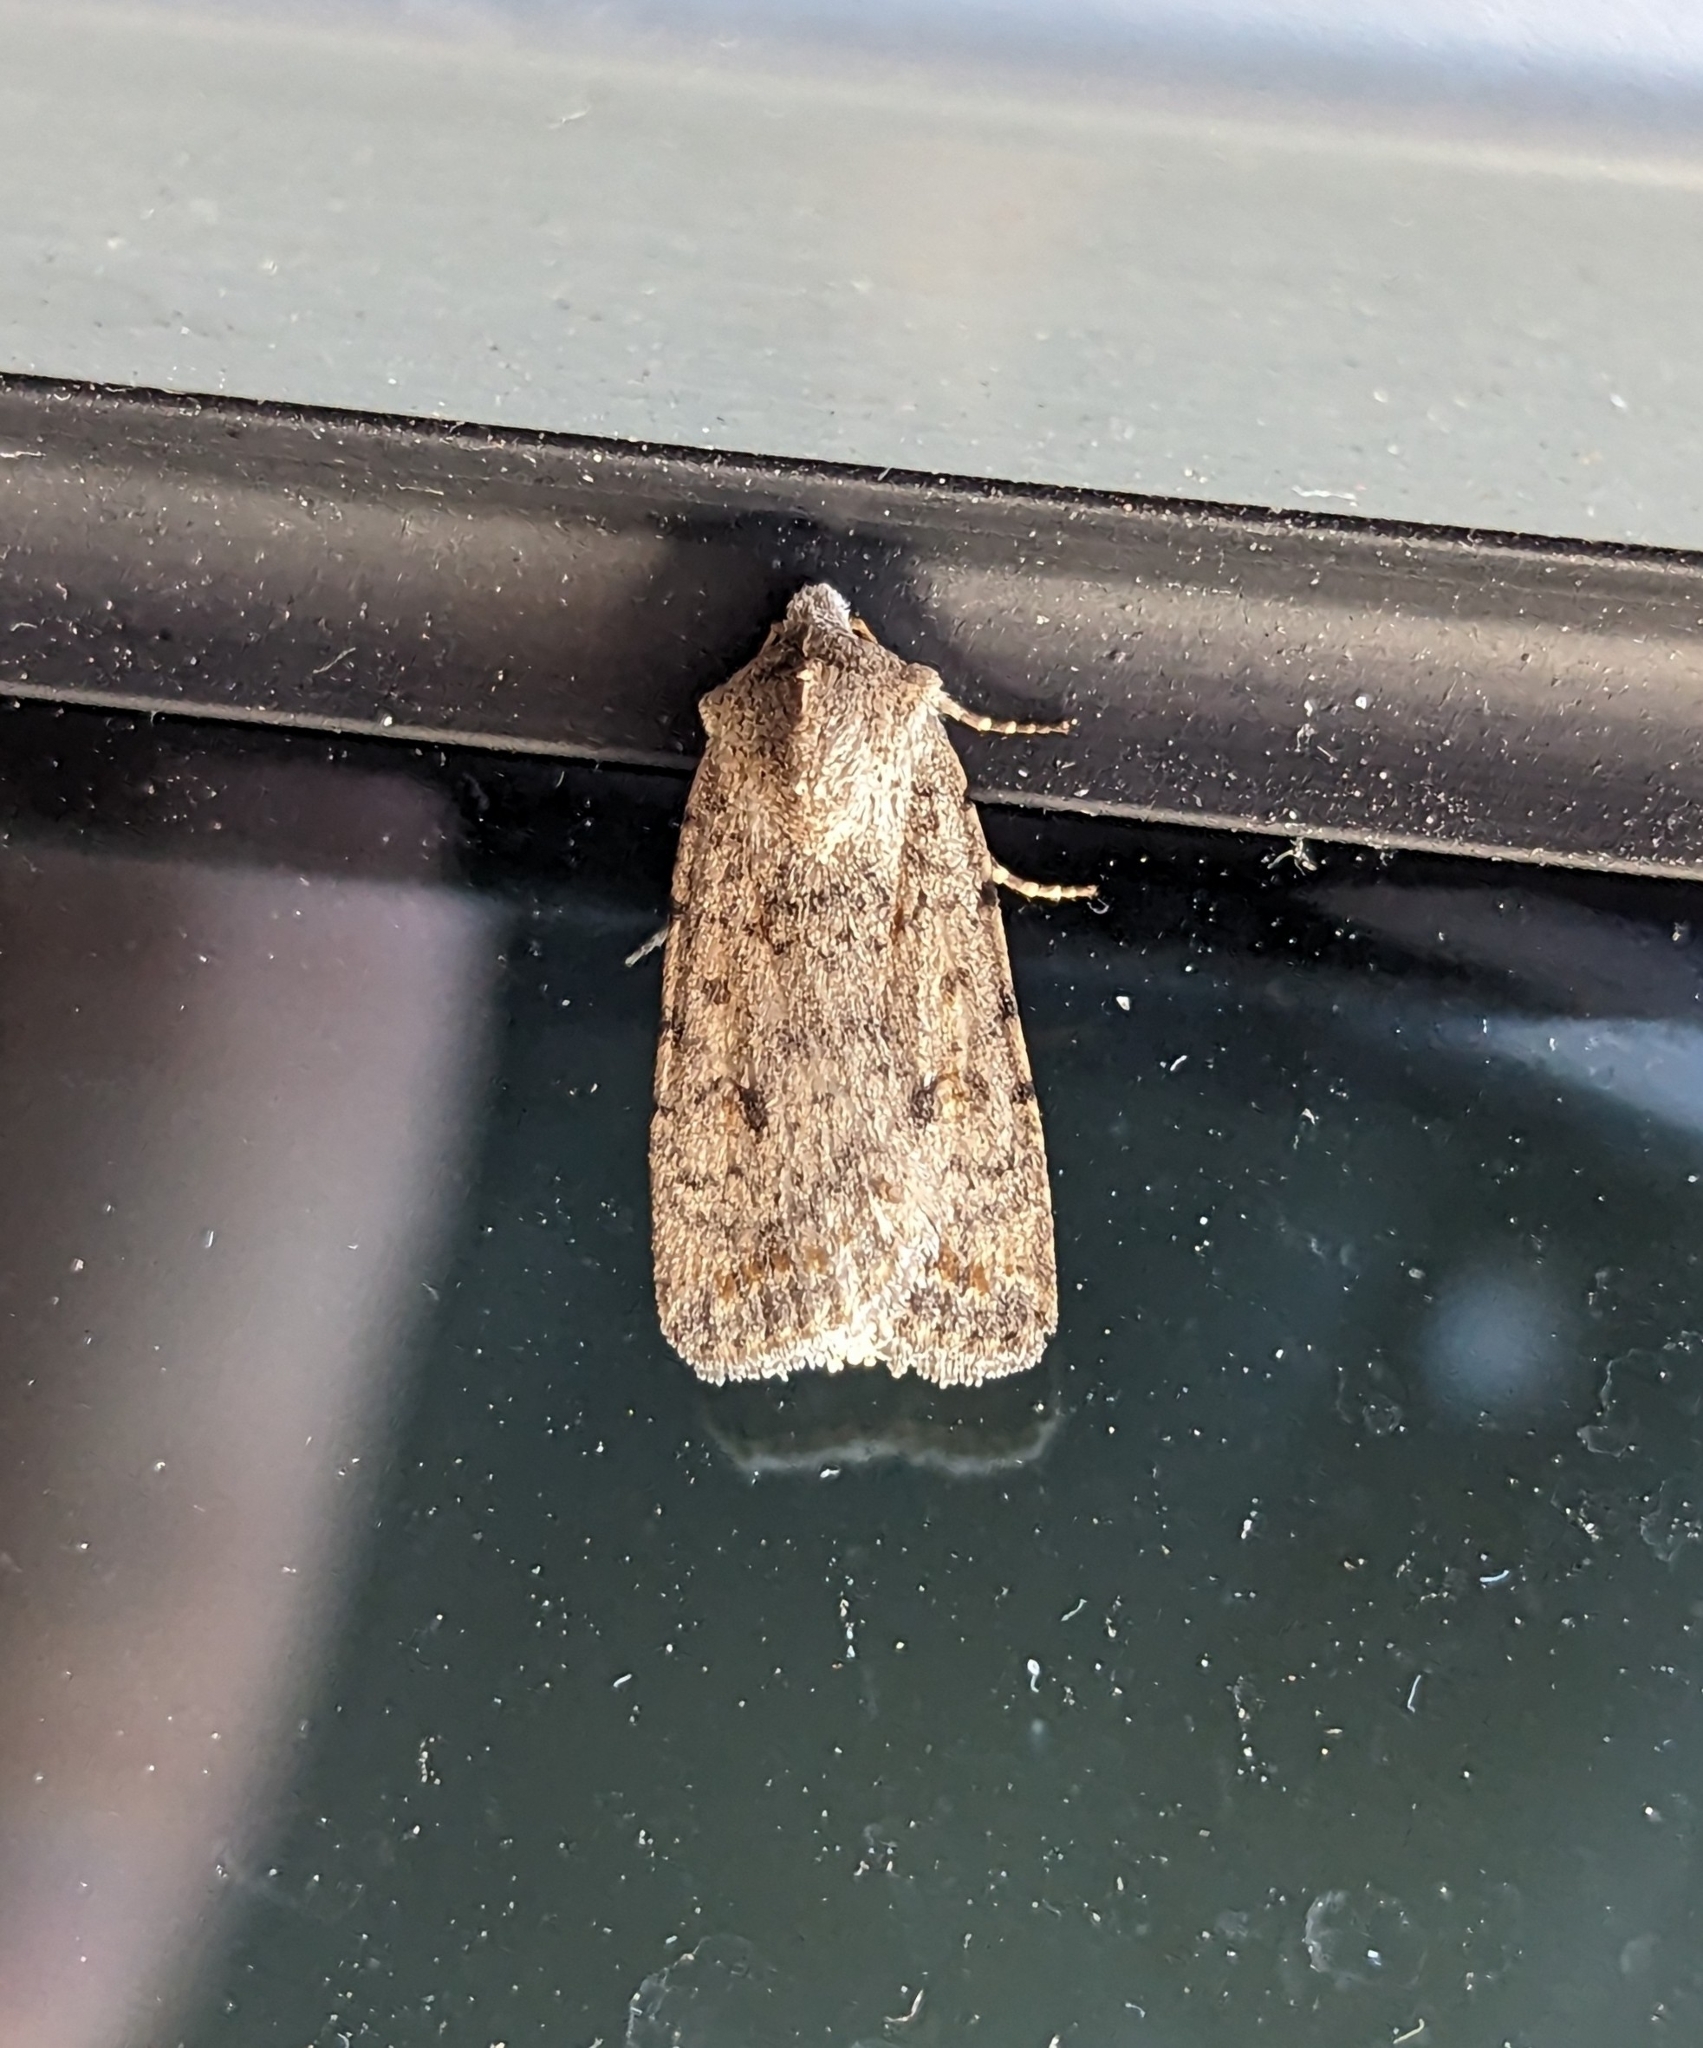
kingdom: Animalia
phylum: Arthropoda
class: Insecta
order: Lepidoptera
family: Noctuidae
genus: Caradrina
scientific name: Caradrina clavipalpis
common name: Pale mottled willow
